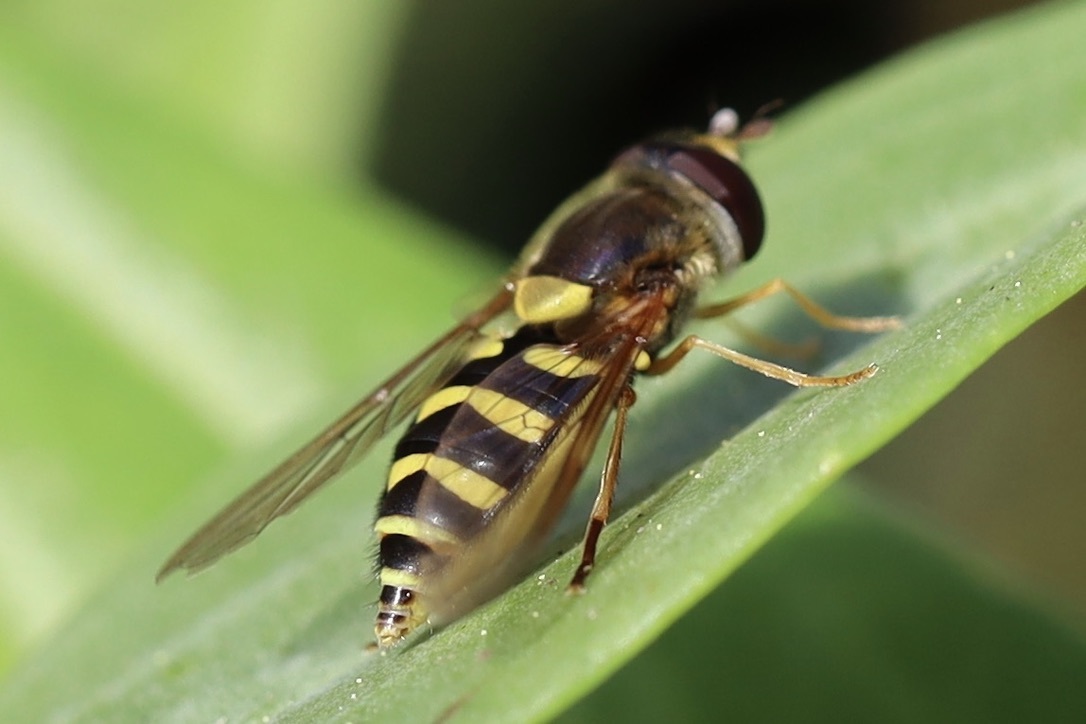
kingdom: Animalia
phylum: Arthropoda
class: Insecta
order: Diptera
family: Syrphidae
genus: Syrphus
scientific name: Syrphus opinator
